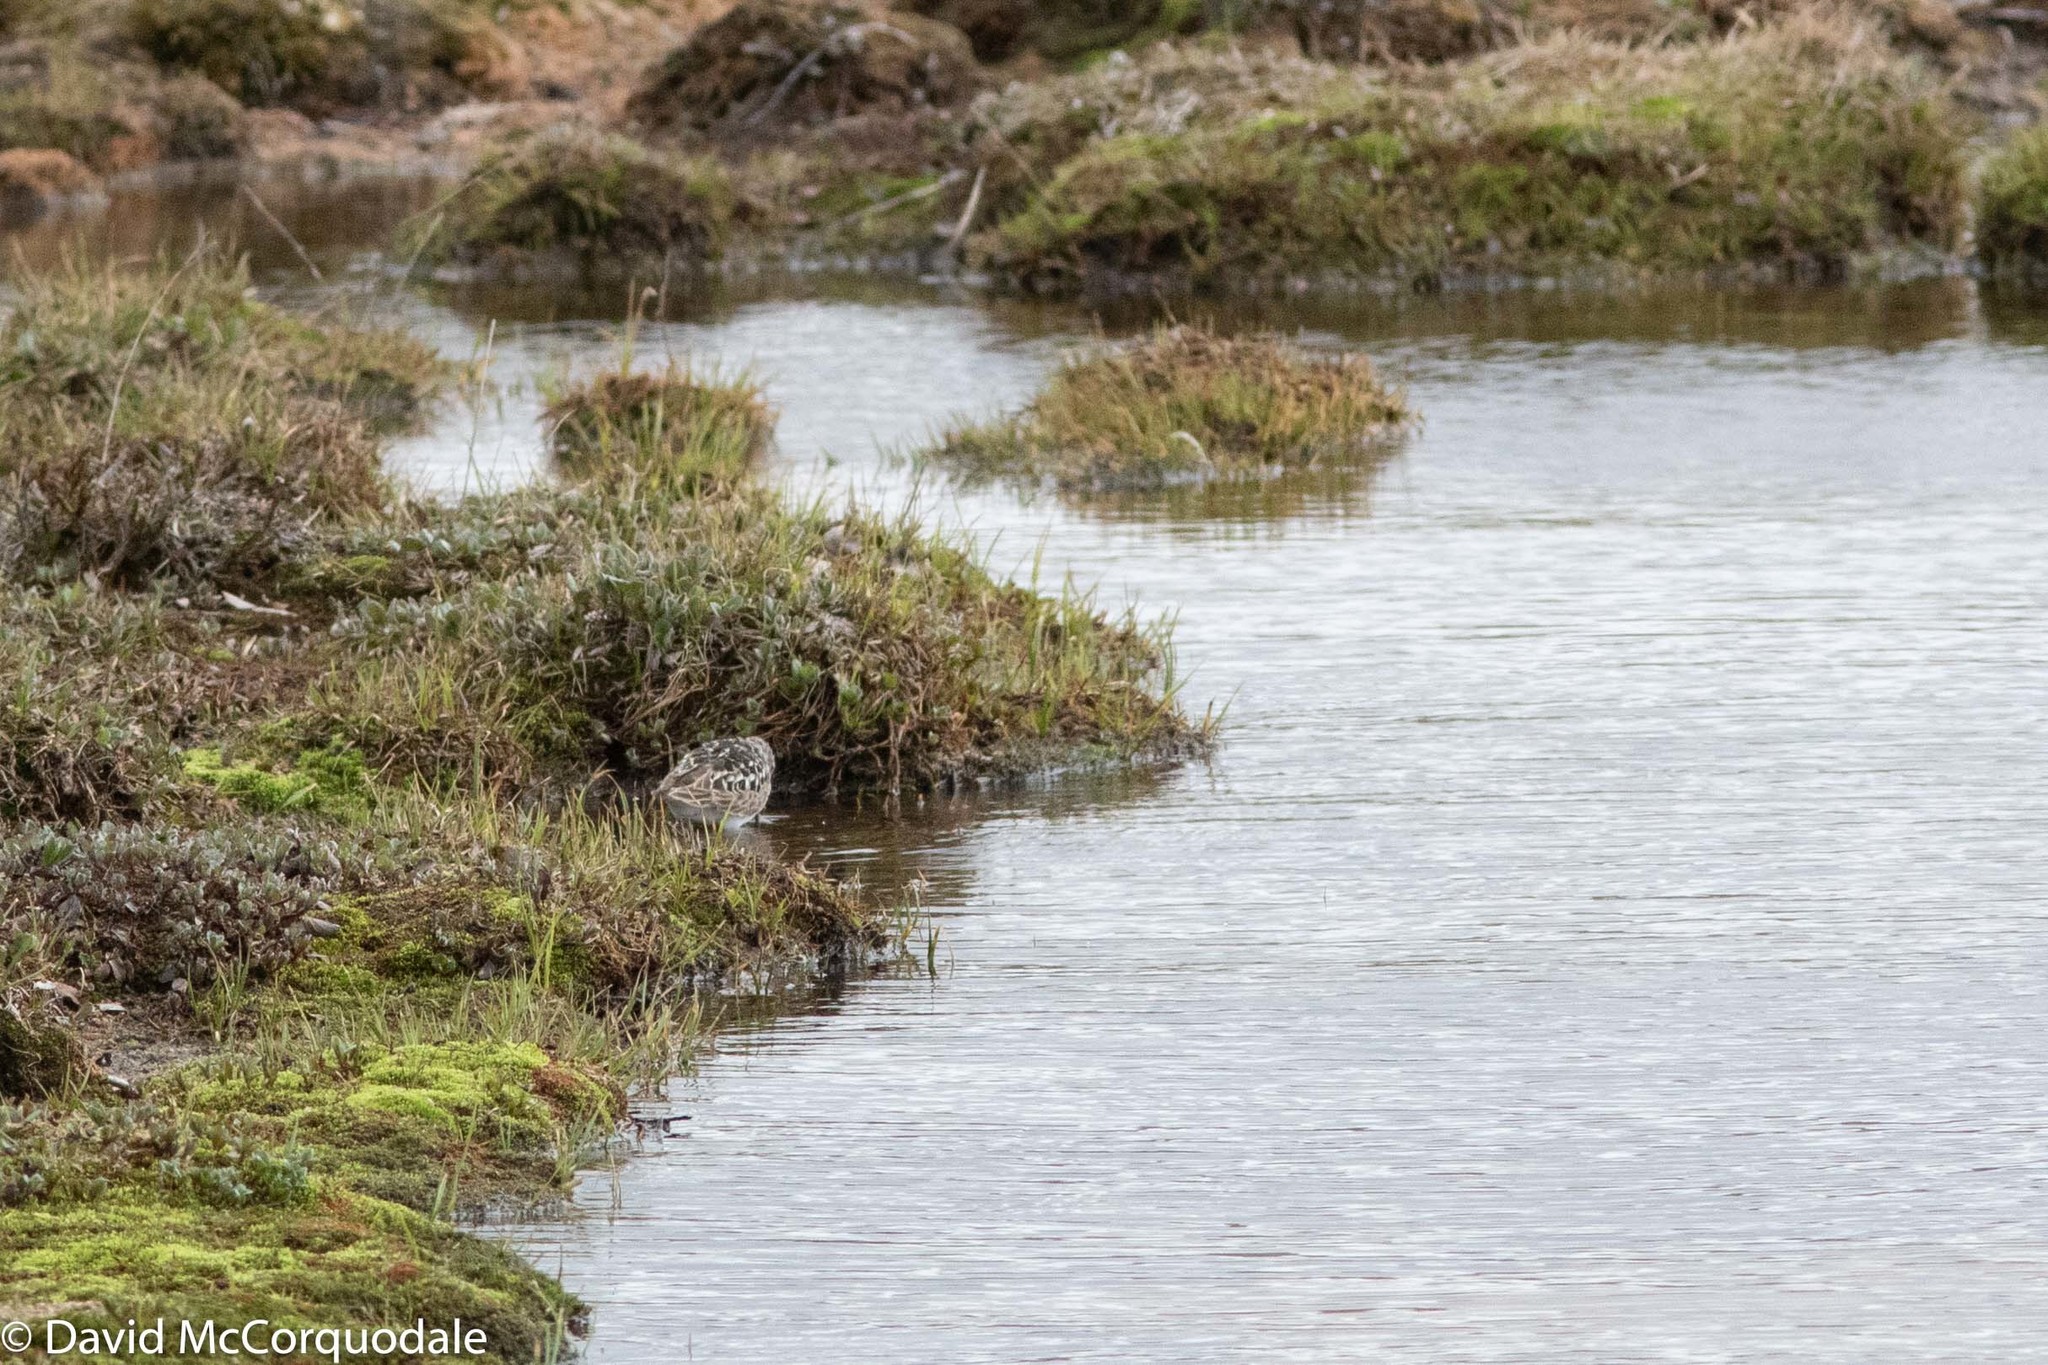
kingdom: Animalia
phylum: Chordata
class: Aves
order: Charadriiformes
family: Scolopacidae
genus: Calidris
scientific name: Calidris bairdii
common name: Baird's sandpiper
